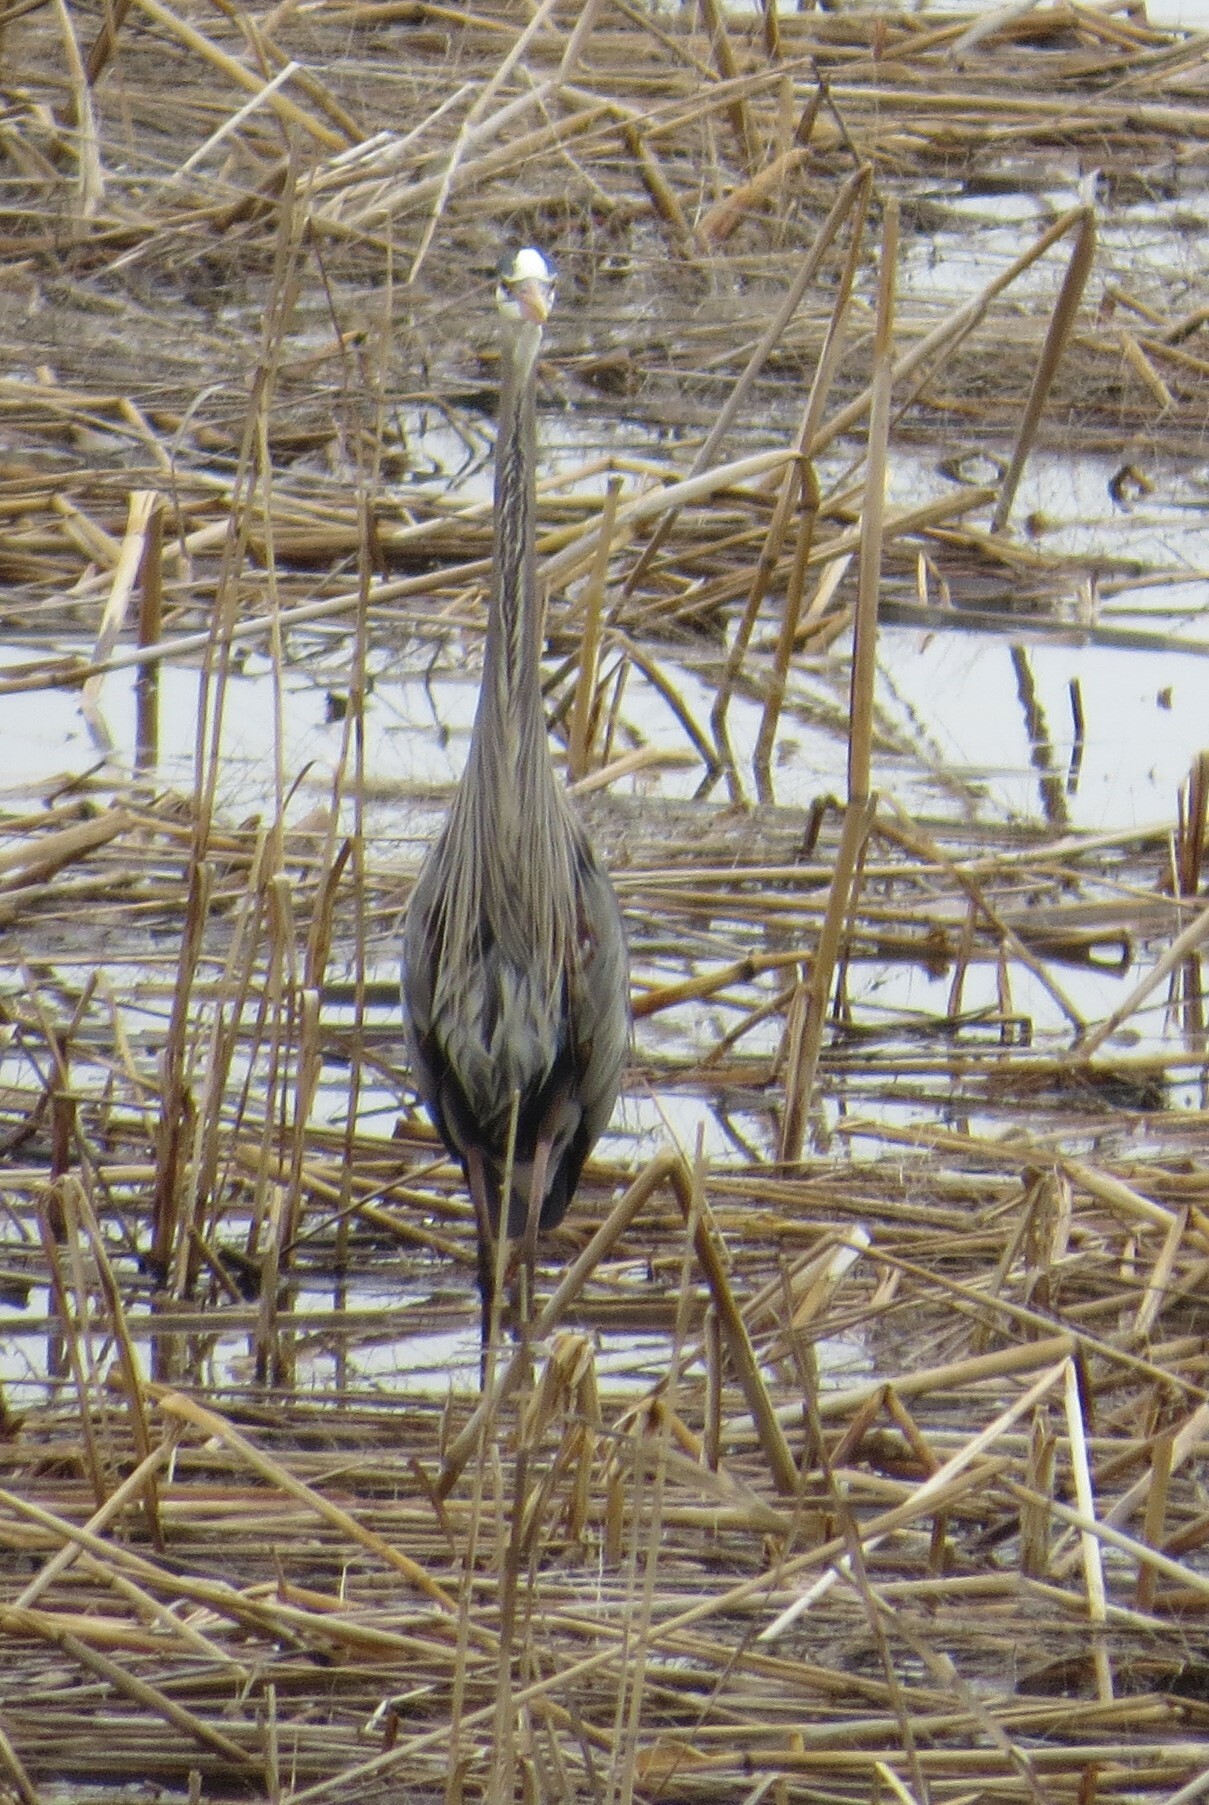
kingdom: Animalia
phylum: Chordata
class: Aves
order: Pelecaniformes
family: Ardeidae
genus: Ardea
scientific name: Ardea herodias
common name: Great blue heron
